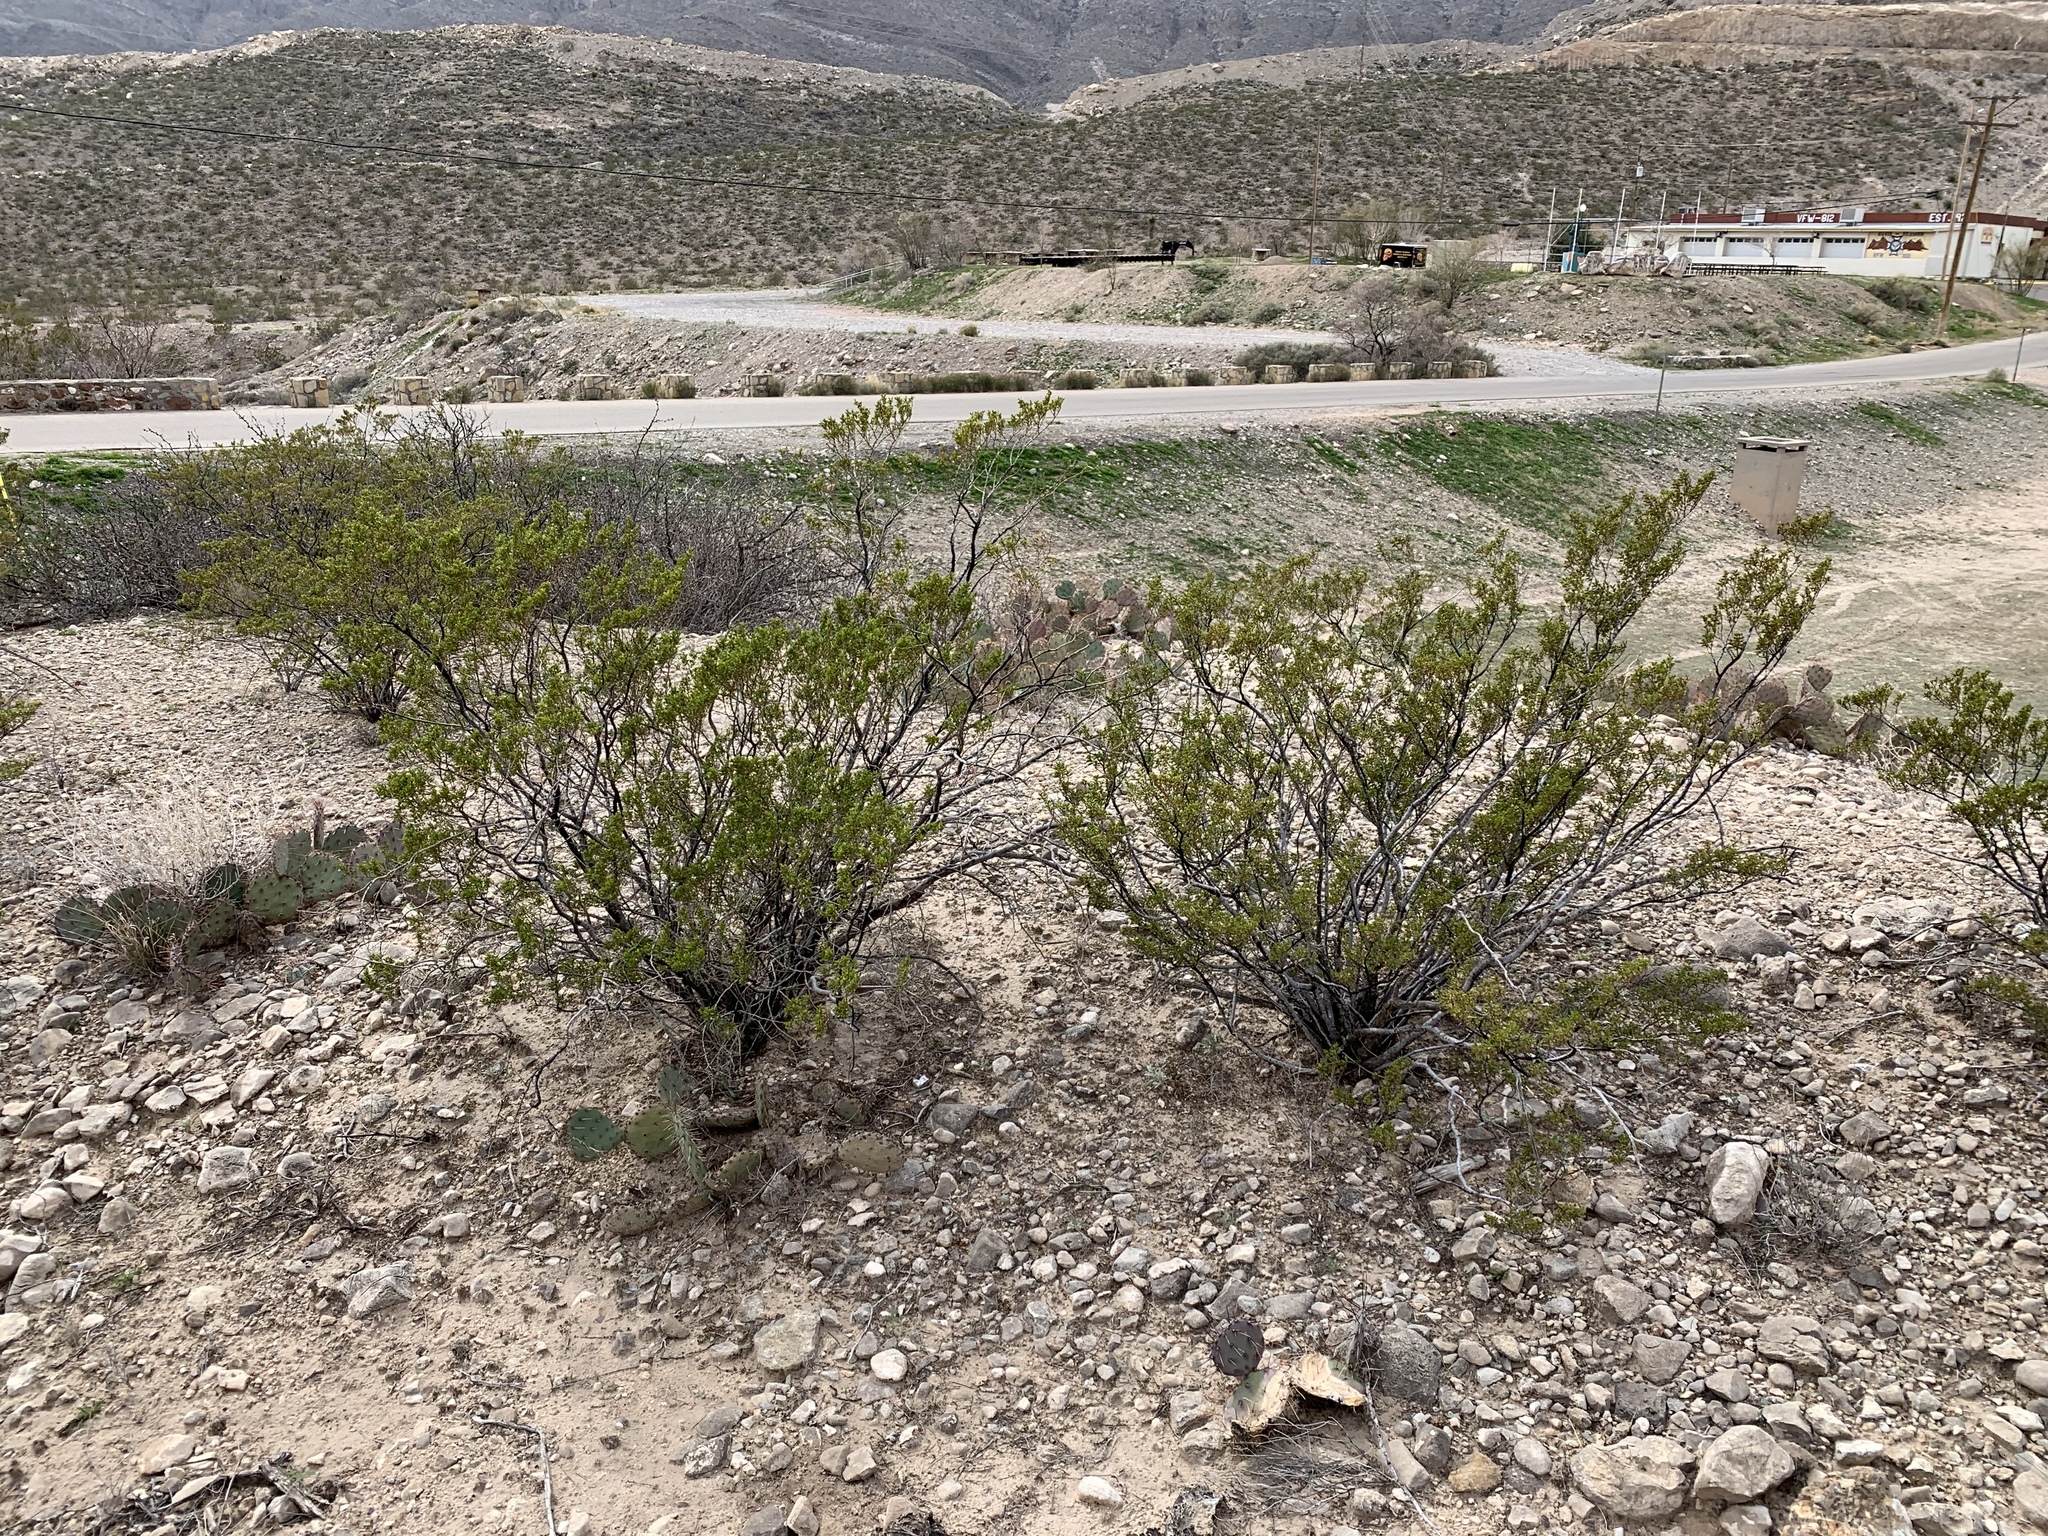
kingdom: Plantae
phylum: Tracheophyta
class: Magnoliopsida
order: Zygophyllales
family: Zygophyllaceae
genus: Larrea
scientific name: Larrea tridentata
